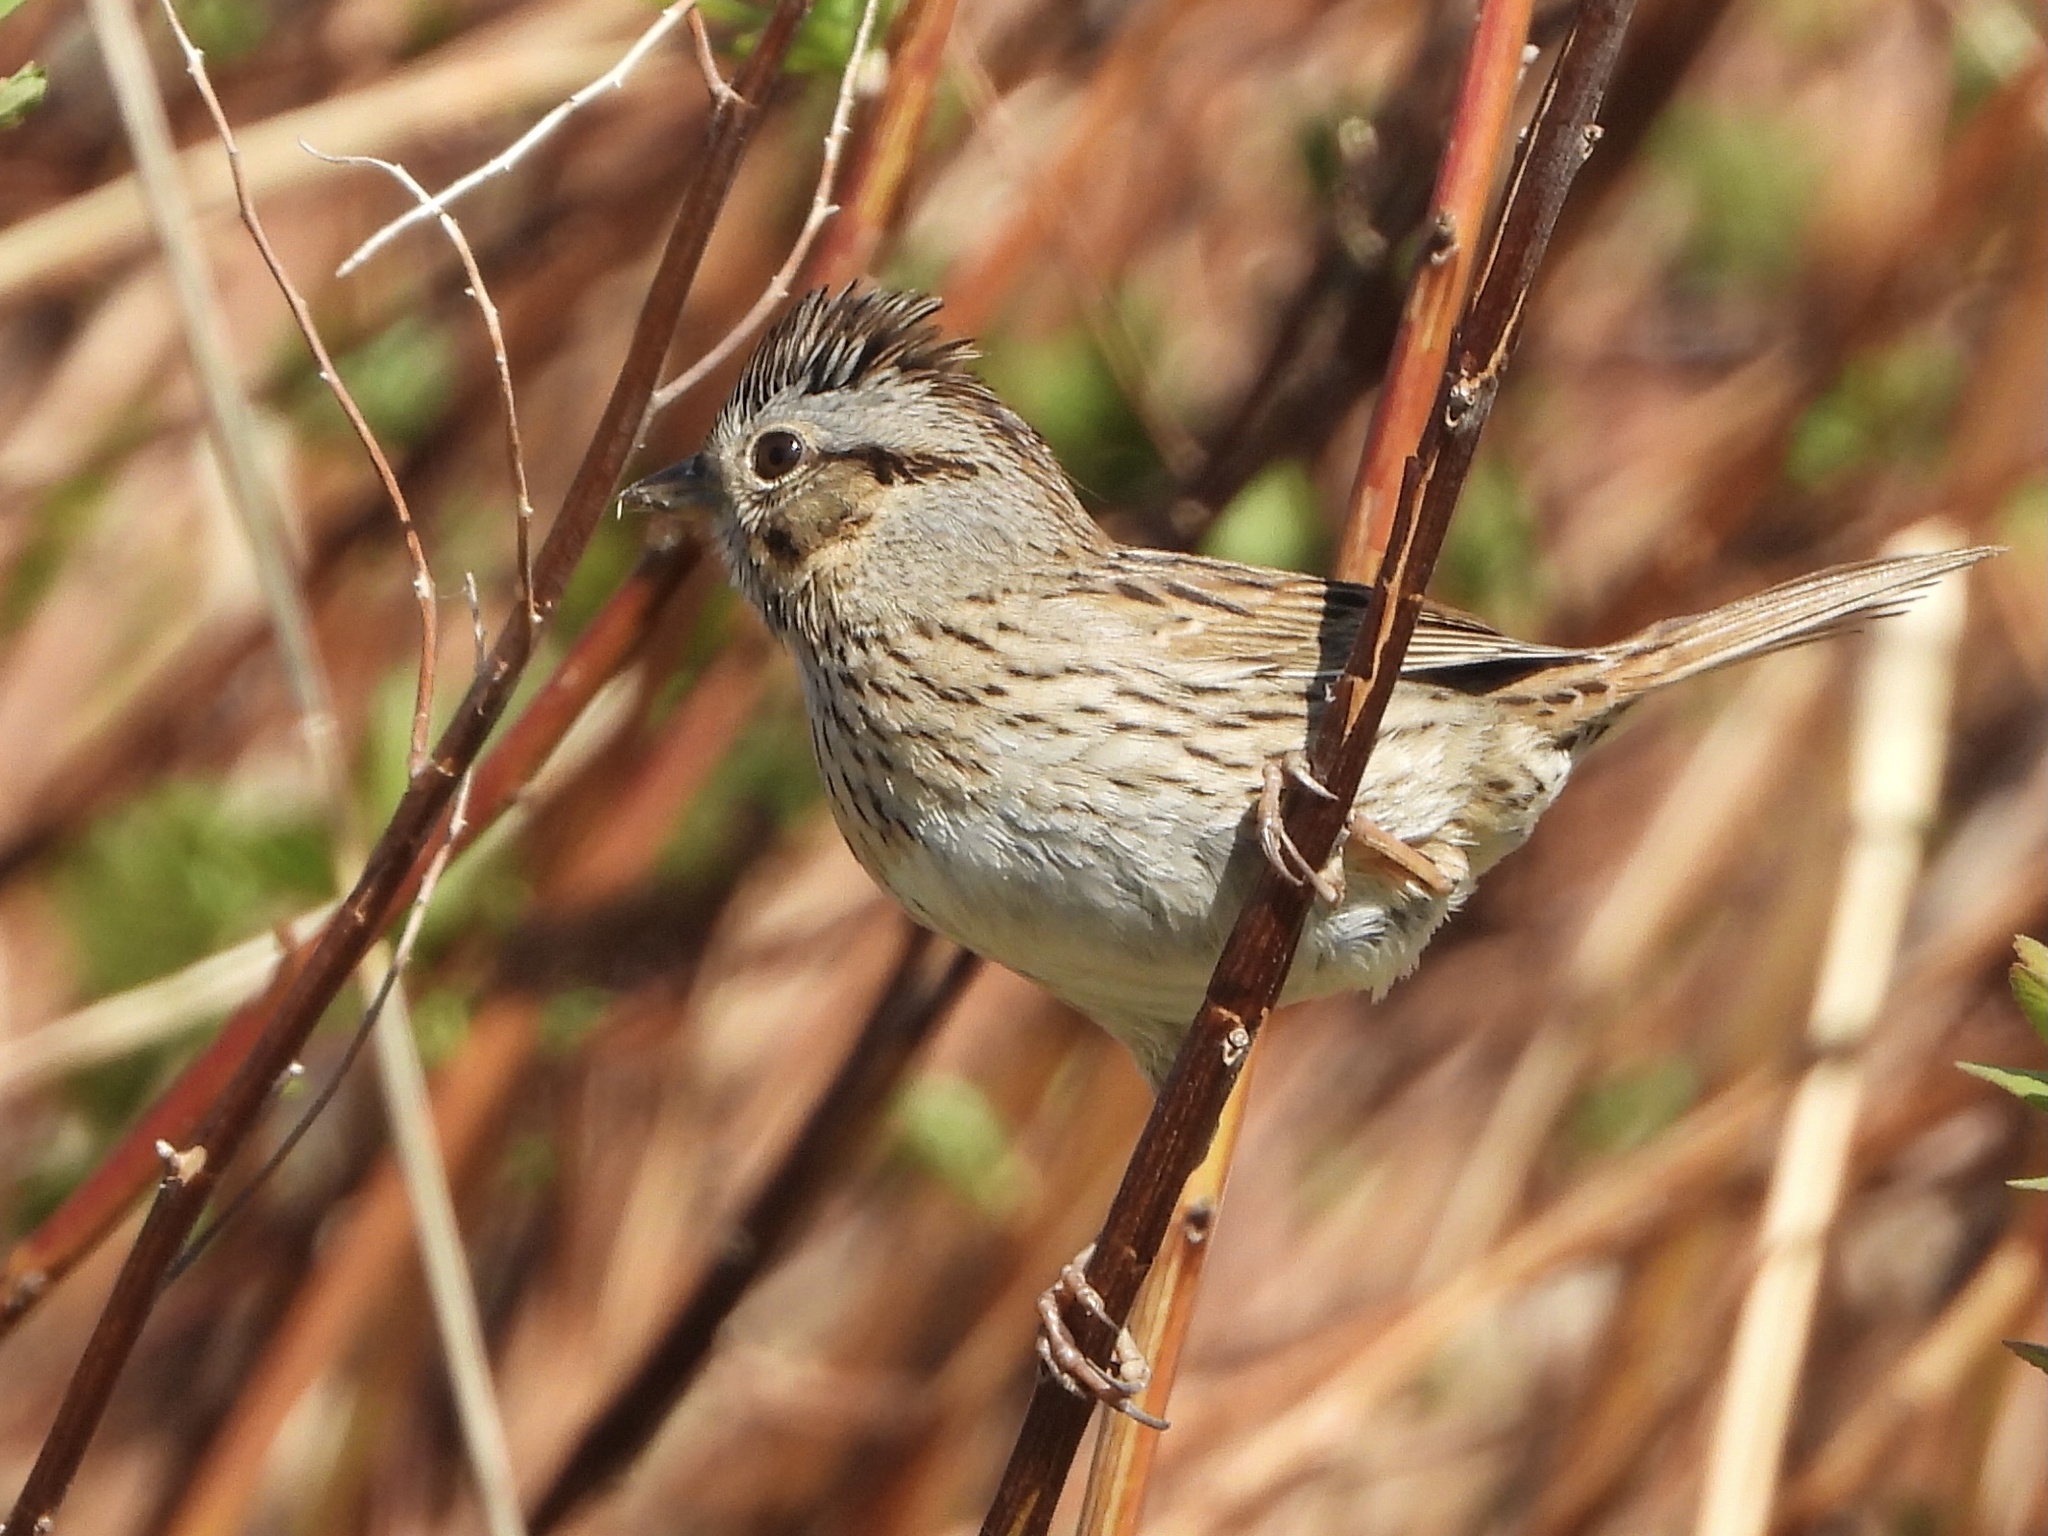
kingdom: Animalia
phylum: Chordata
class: Aves
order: Passeriformes
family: Passerellidae
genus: Melospiza
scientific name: Melospiza lincolnii
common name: Lincoln's sparrow
